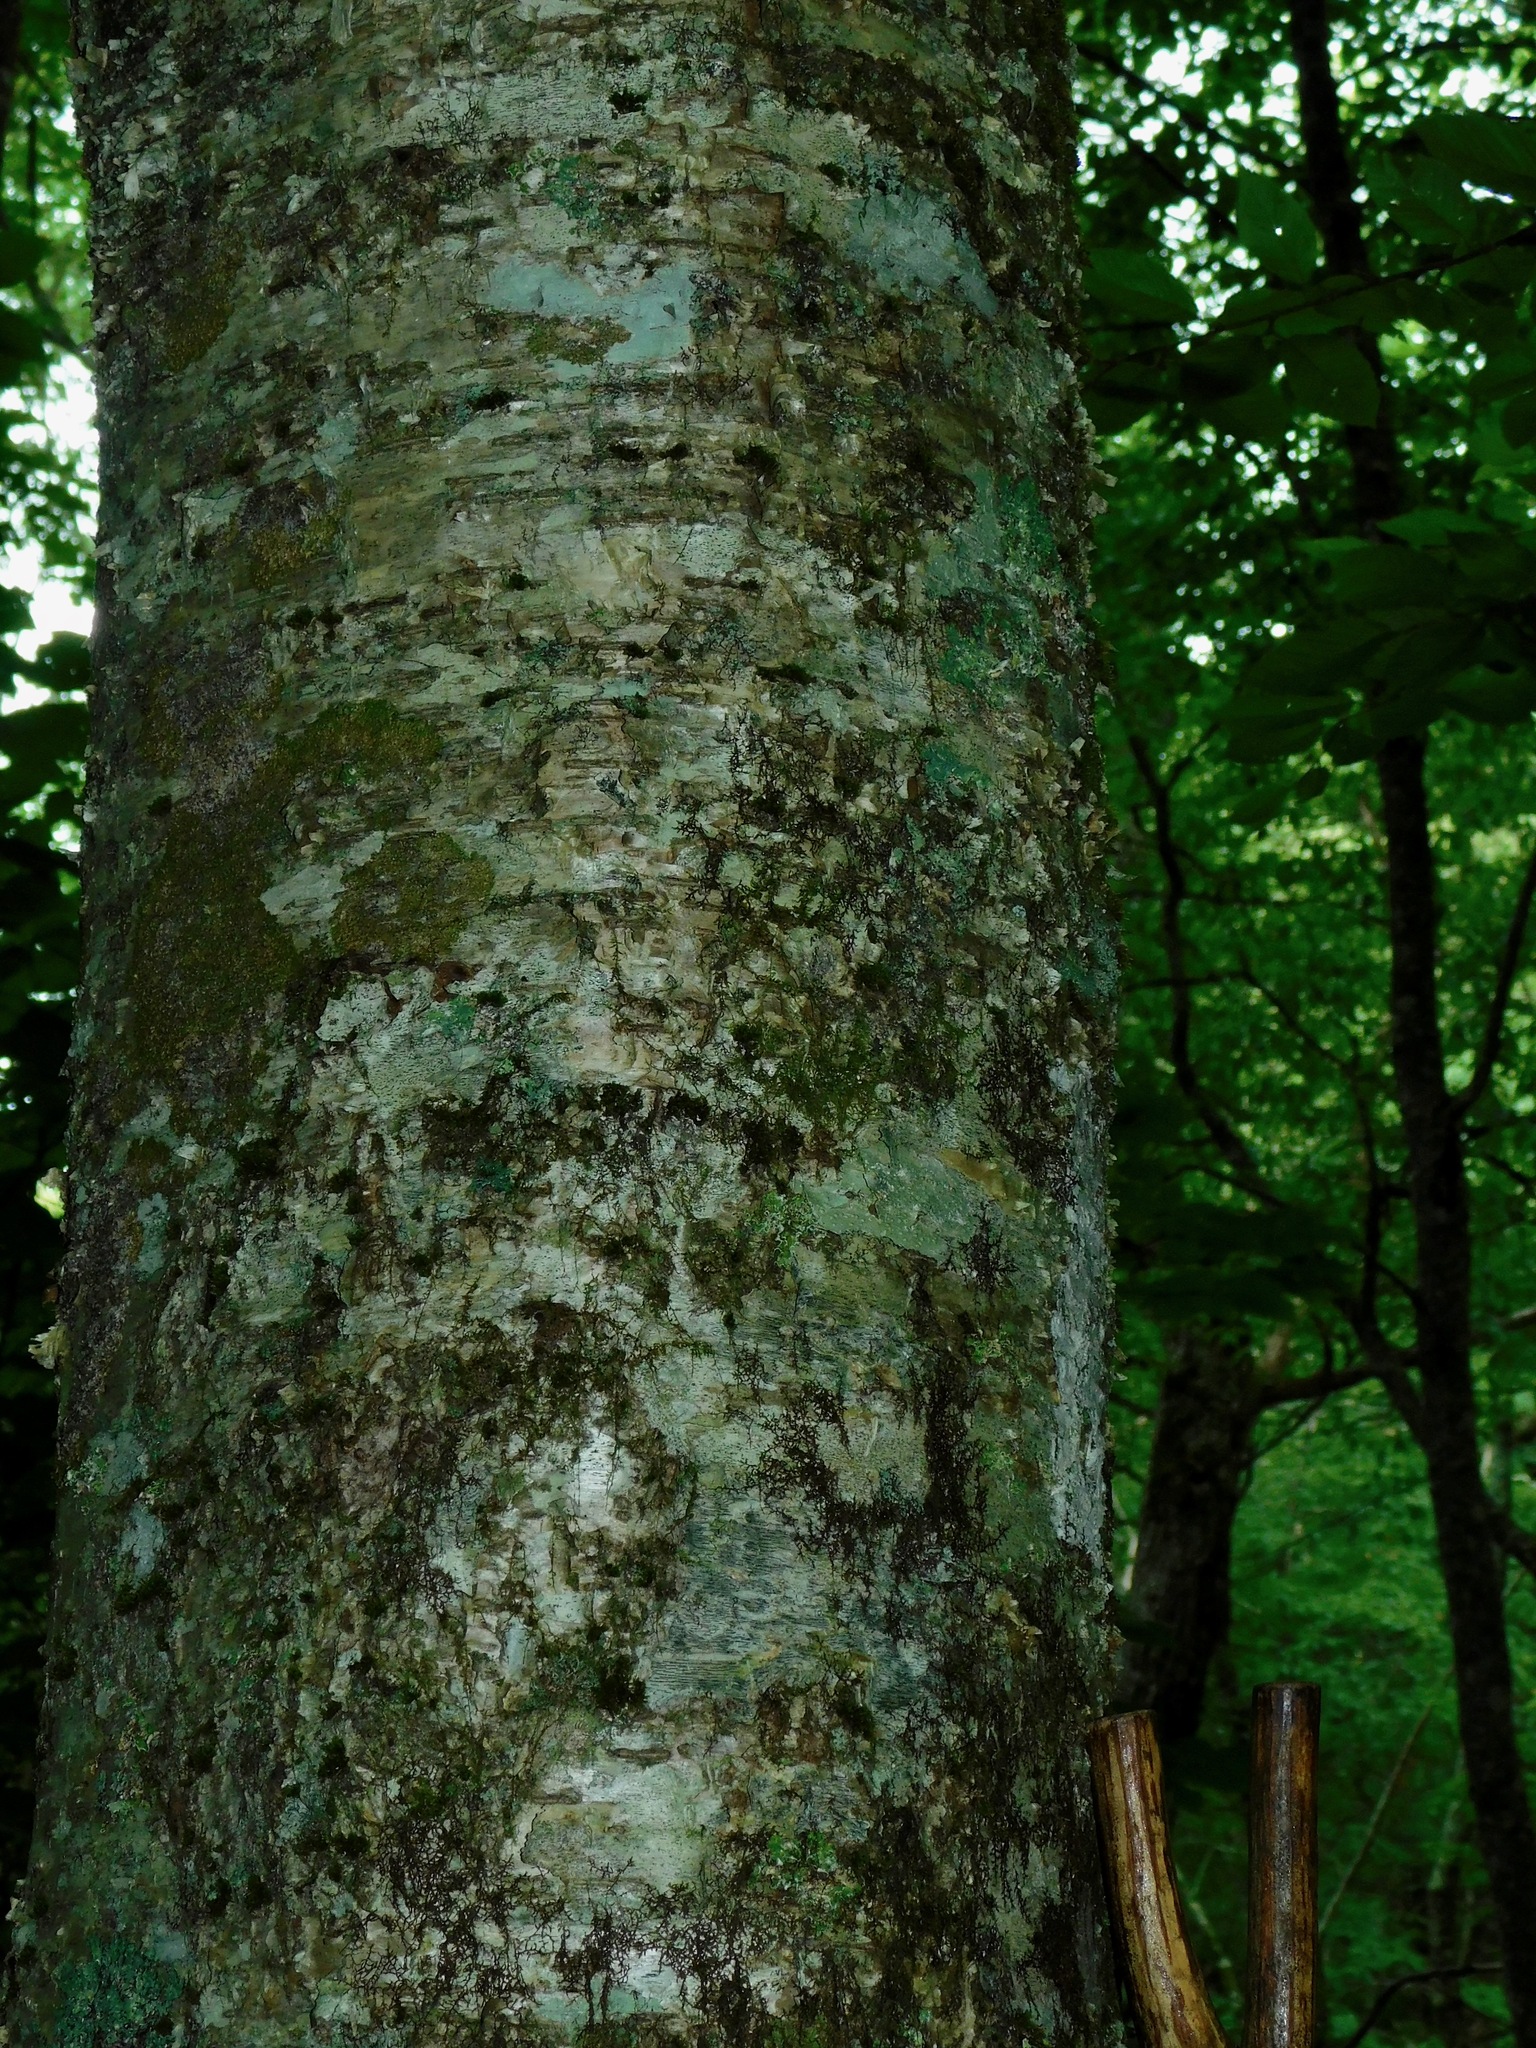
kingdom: Plantae
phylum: Tracheophyta
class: Magnoliopsida
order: Fagales
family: Betulaceae
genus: Betula
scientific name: Betula alleghaniensis
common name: Yellow birch
